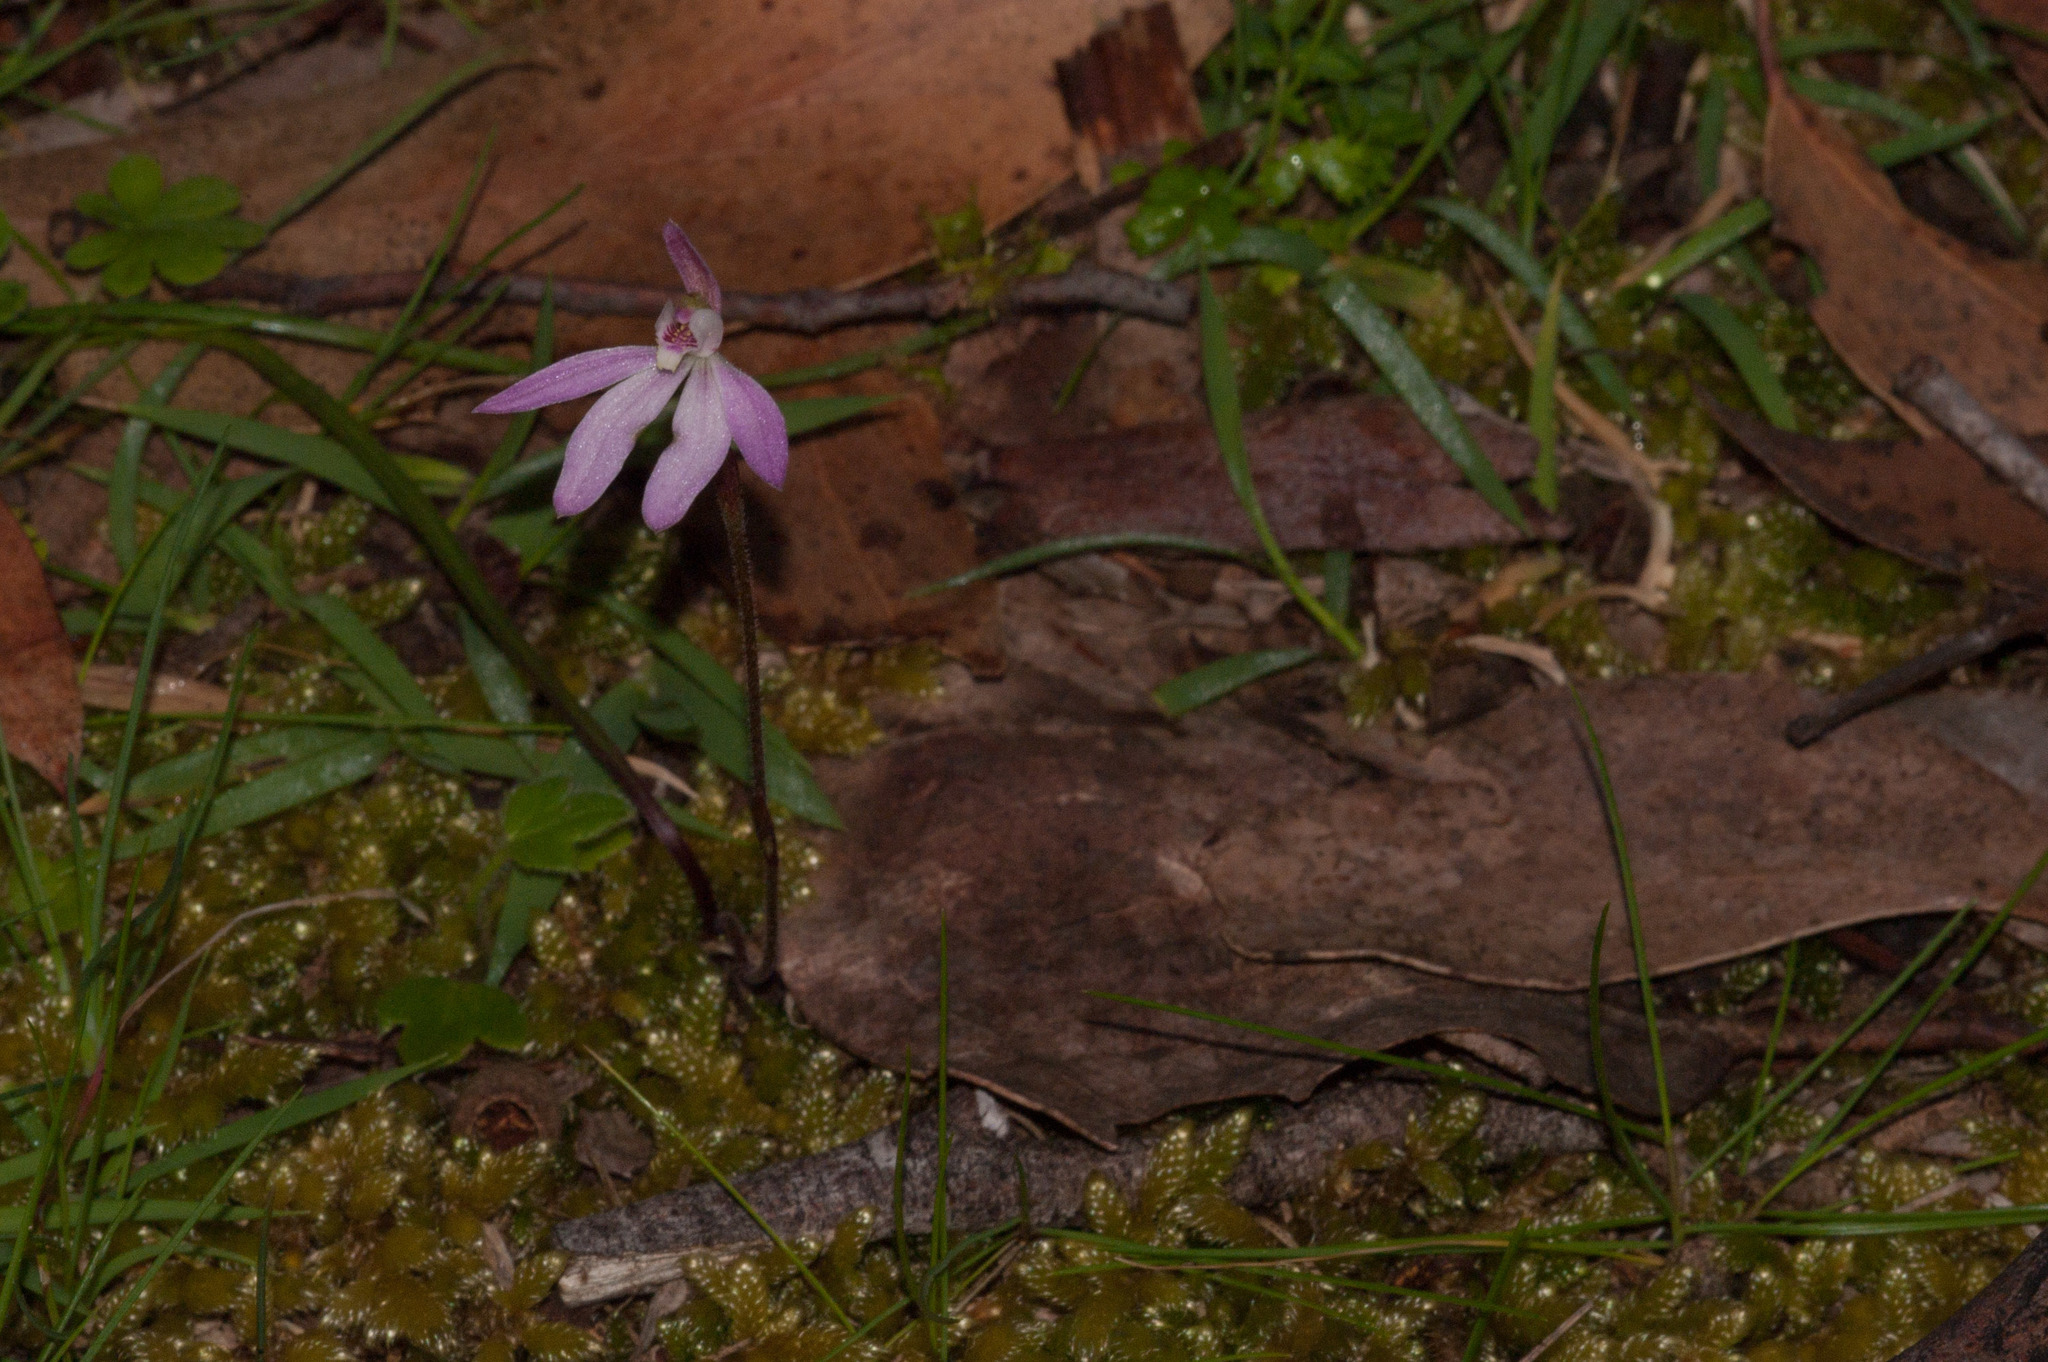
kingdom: Plantae
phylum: Tracheophyta
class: Liliopsida
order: Asparagales
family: Orchidaceae
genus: Caladenia
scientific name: Caladenia carnea
